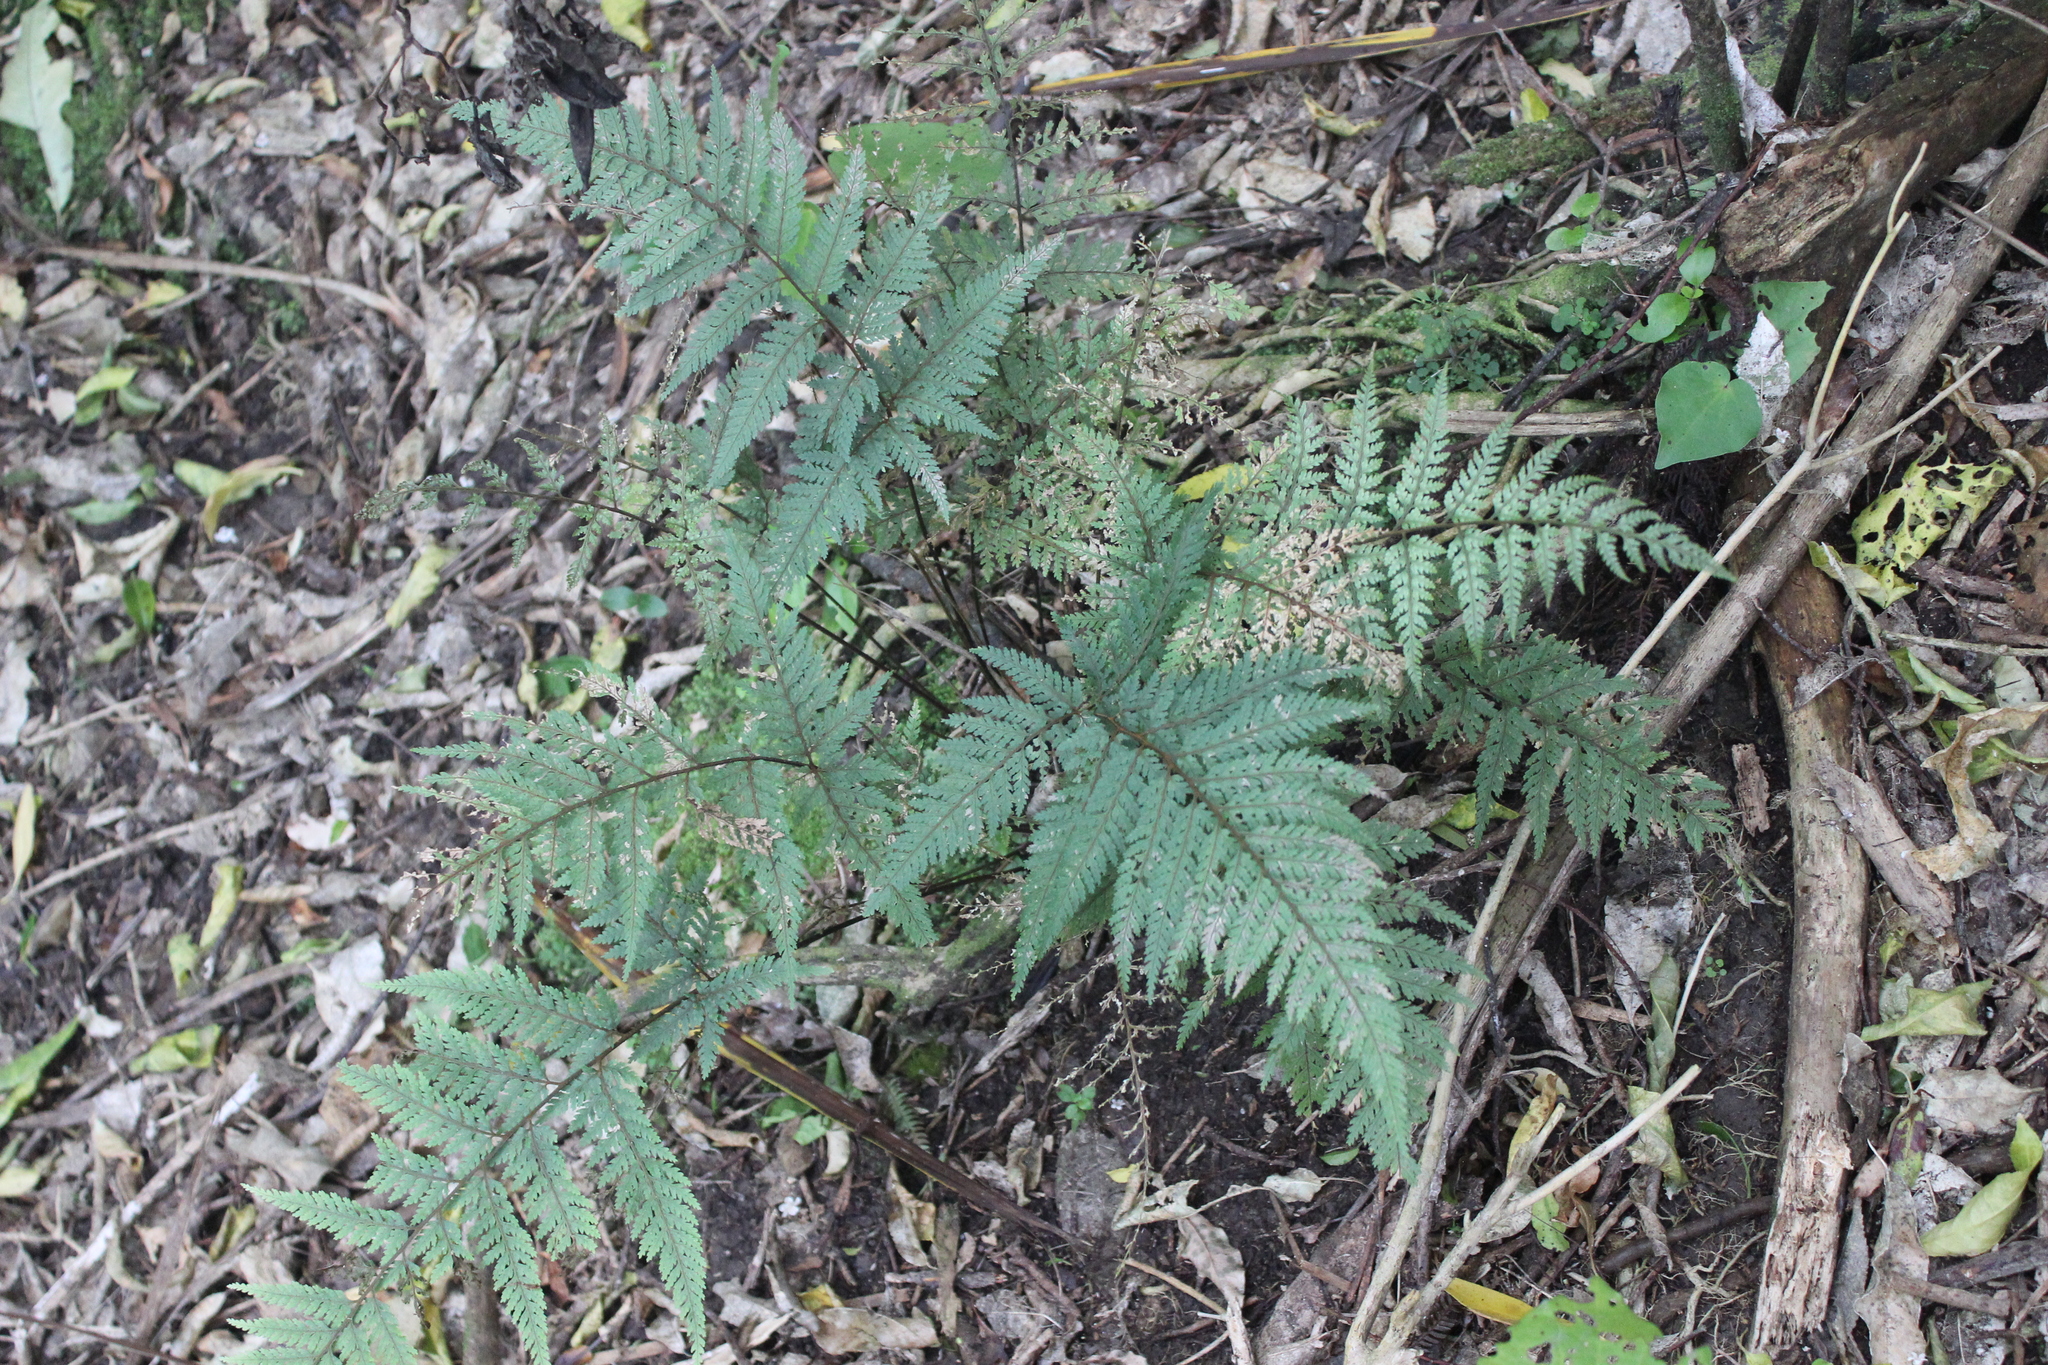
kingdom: Plantae
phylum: Tracheophyta
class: Polypodiopsida
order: Polypodiales
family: Dryopteridaceae
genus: Parapolystichum
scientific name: Parapolystichum glabellum
